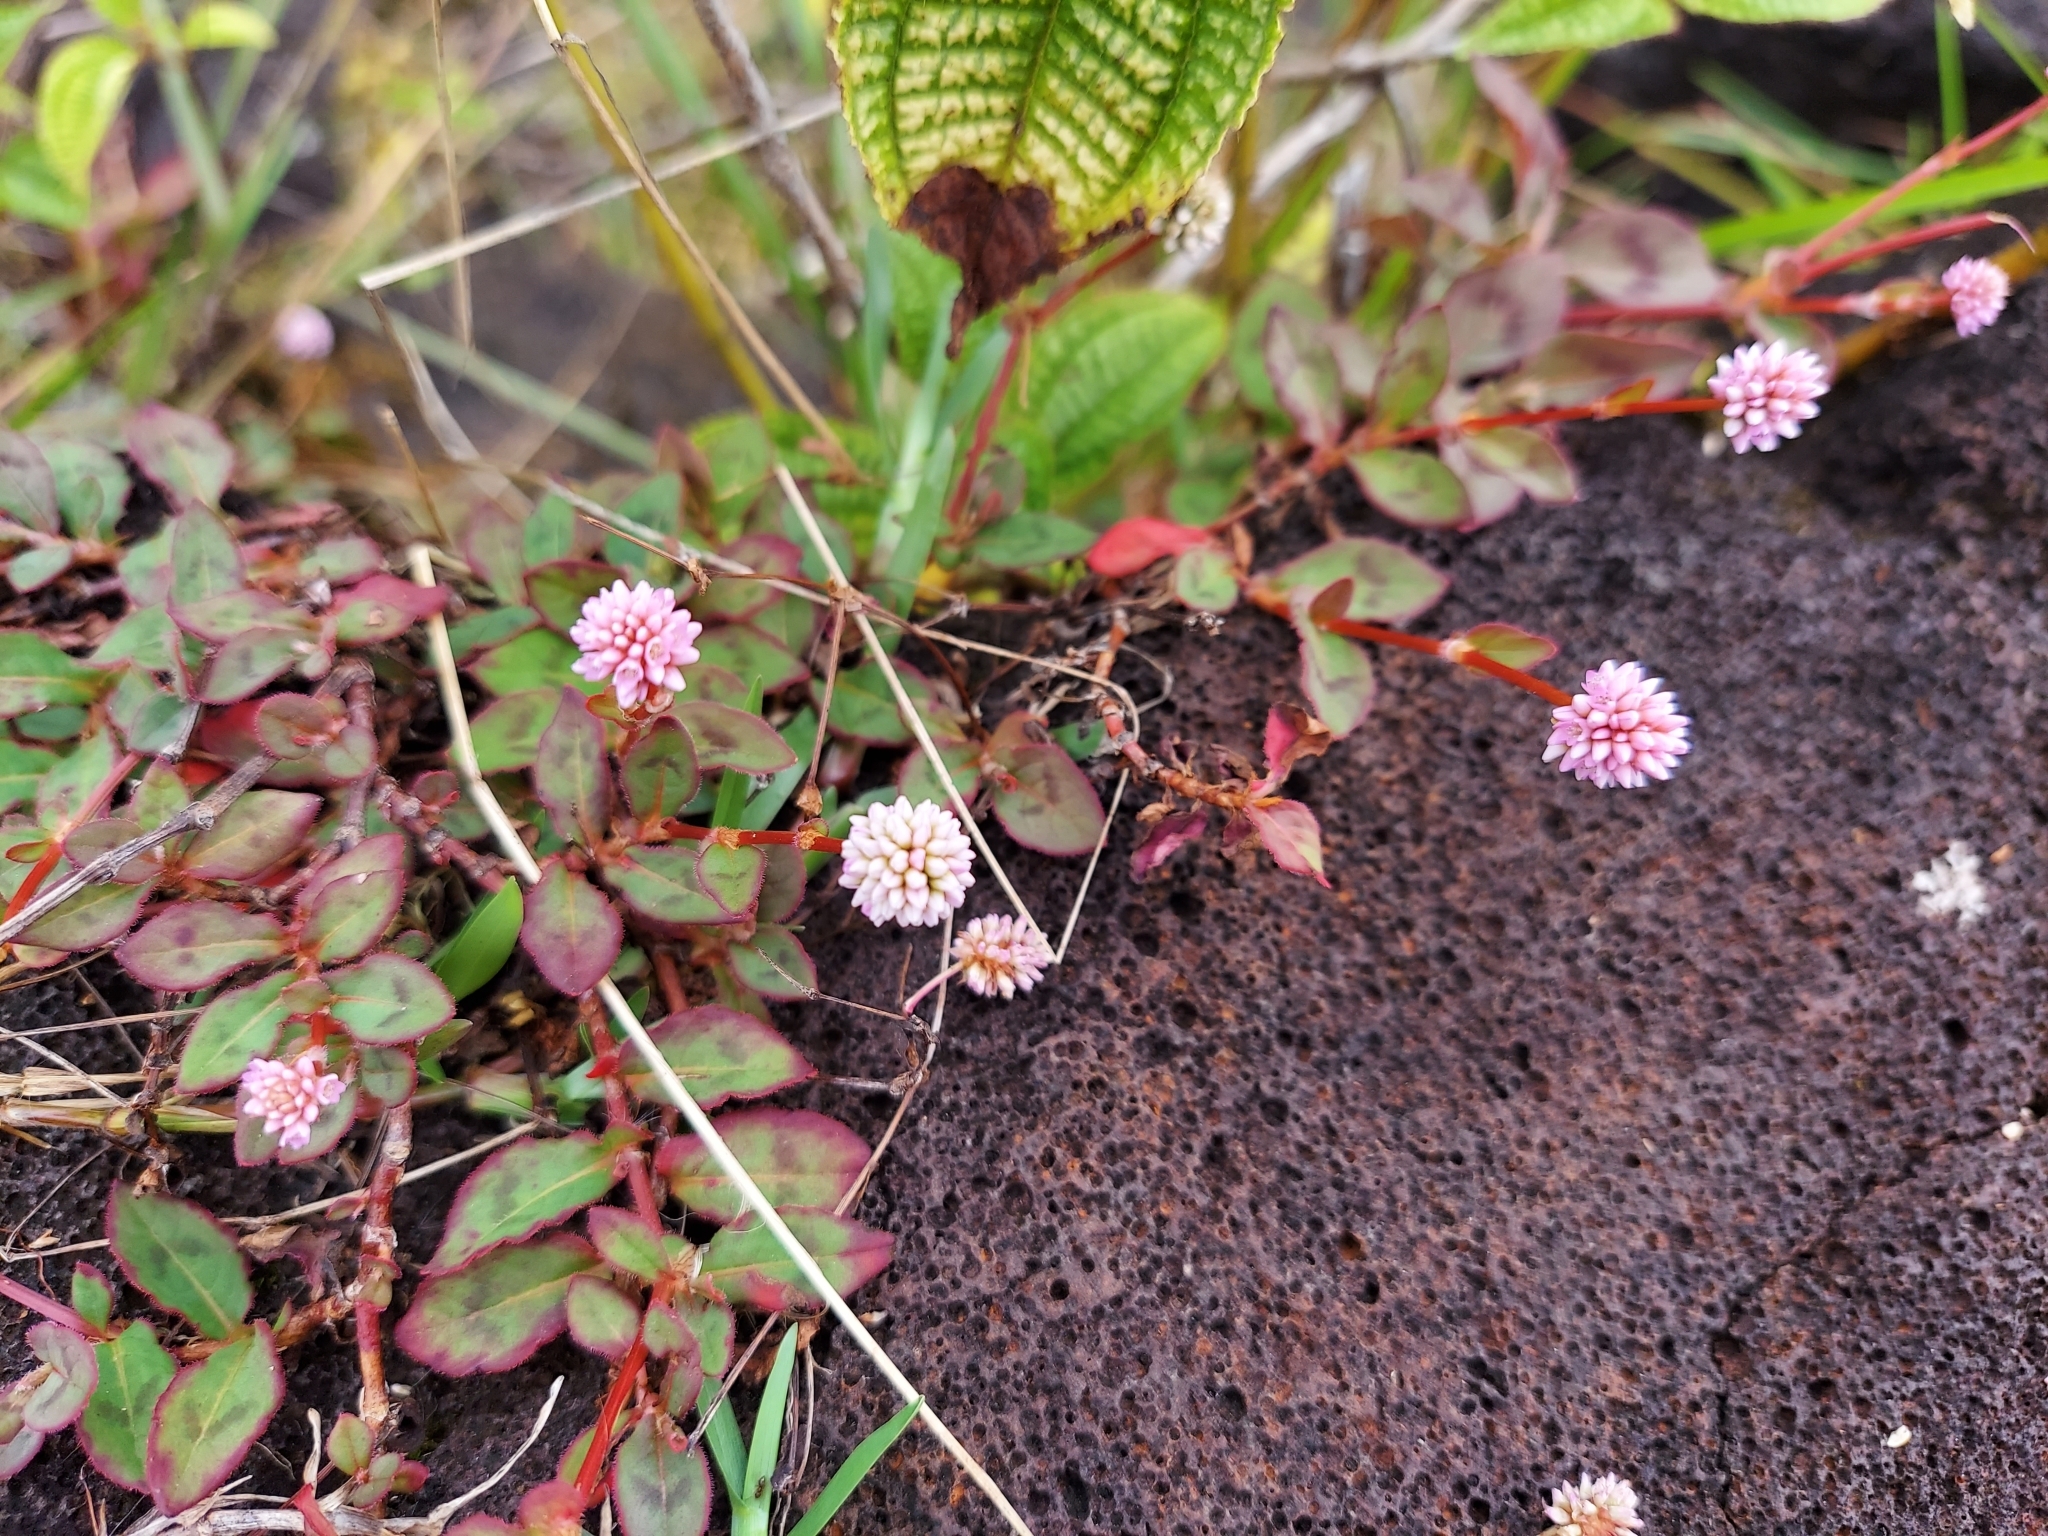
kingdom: Plantae
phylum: Tracheophyta
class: Magnoliopsida
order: Caryophyllales
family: Polygonaceae
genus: Persicaria
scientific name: Persicaria capitata
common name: Pinkhead smartweed
